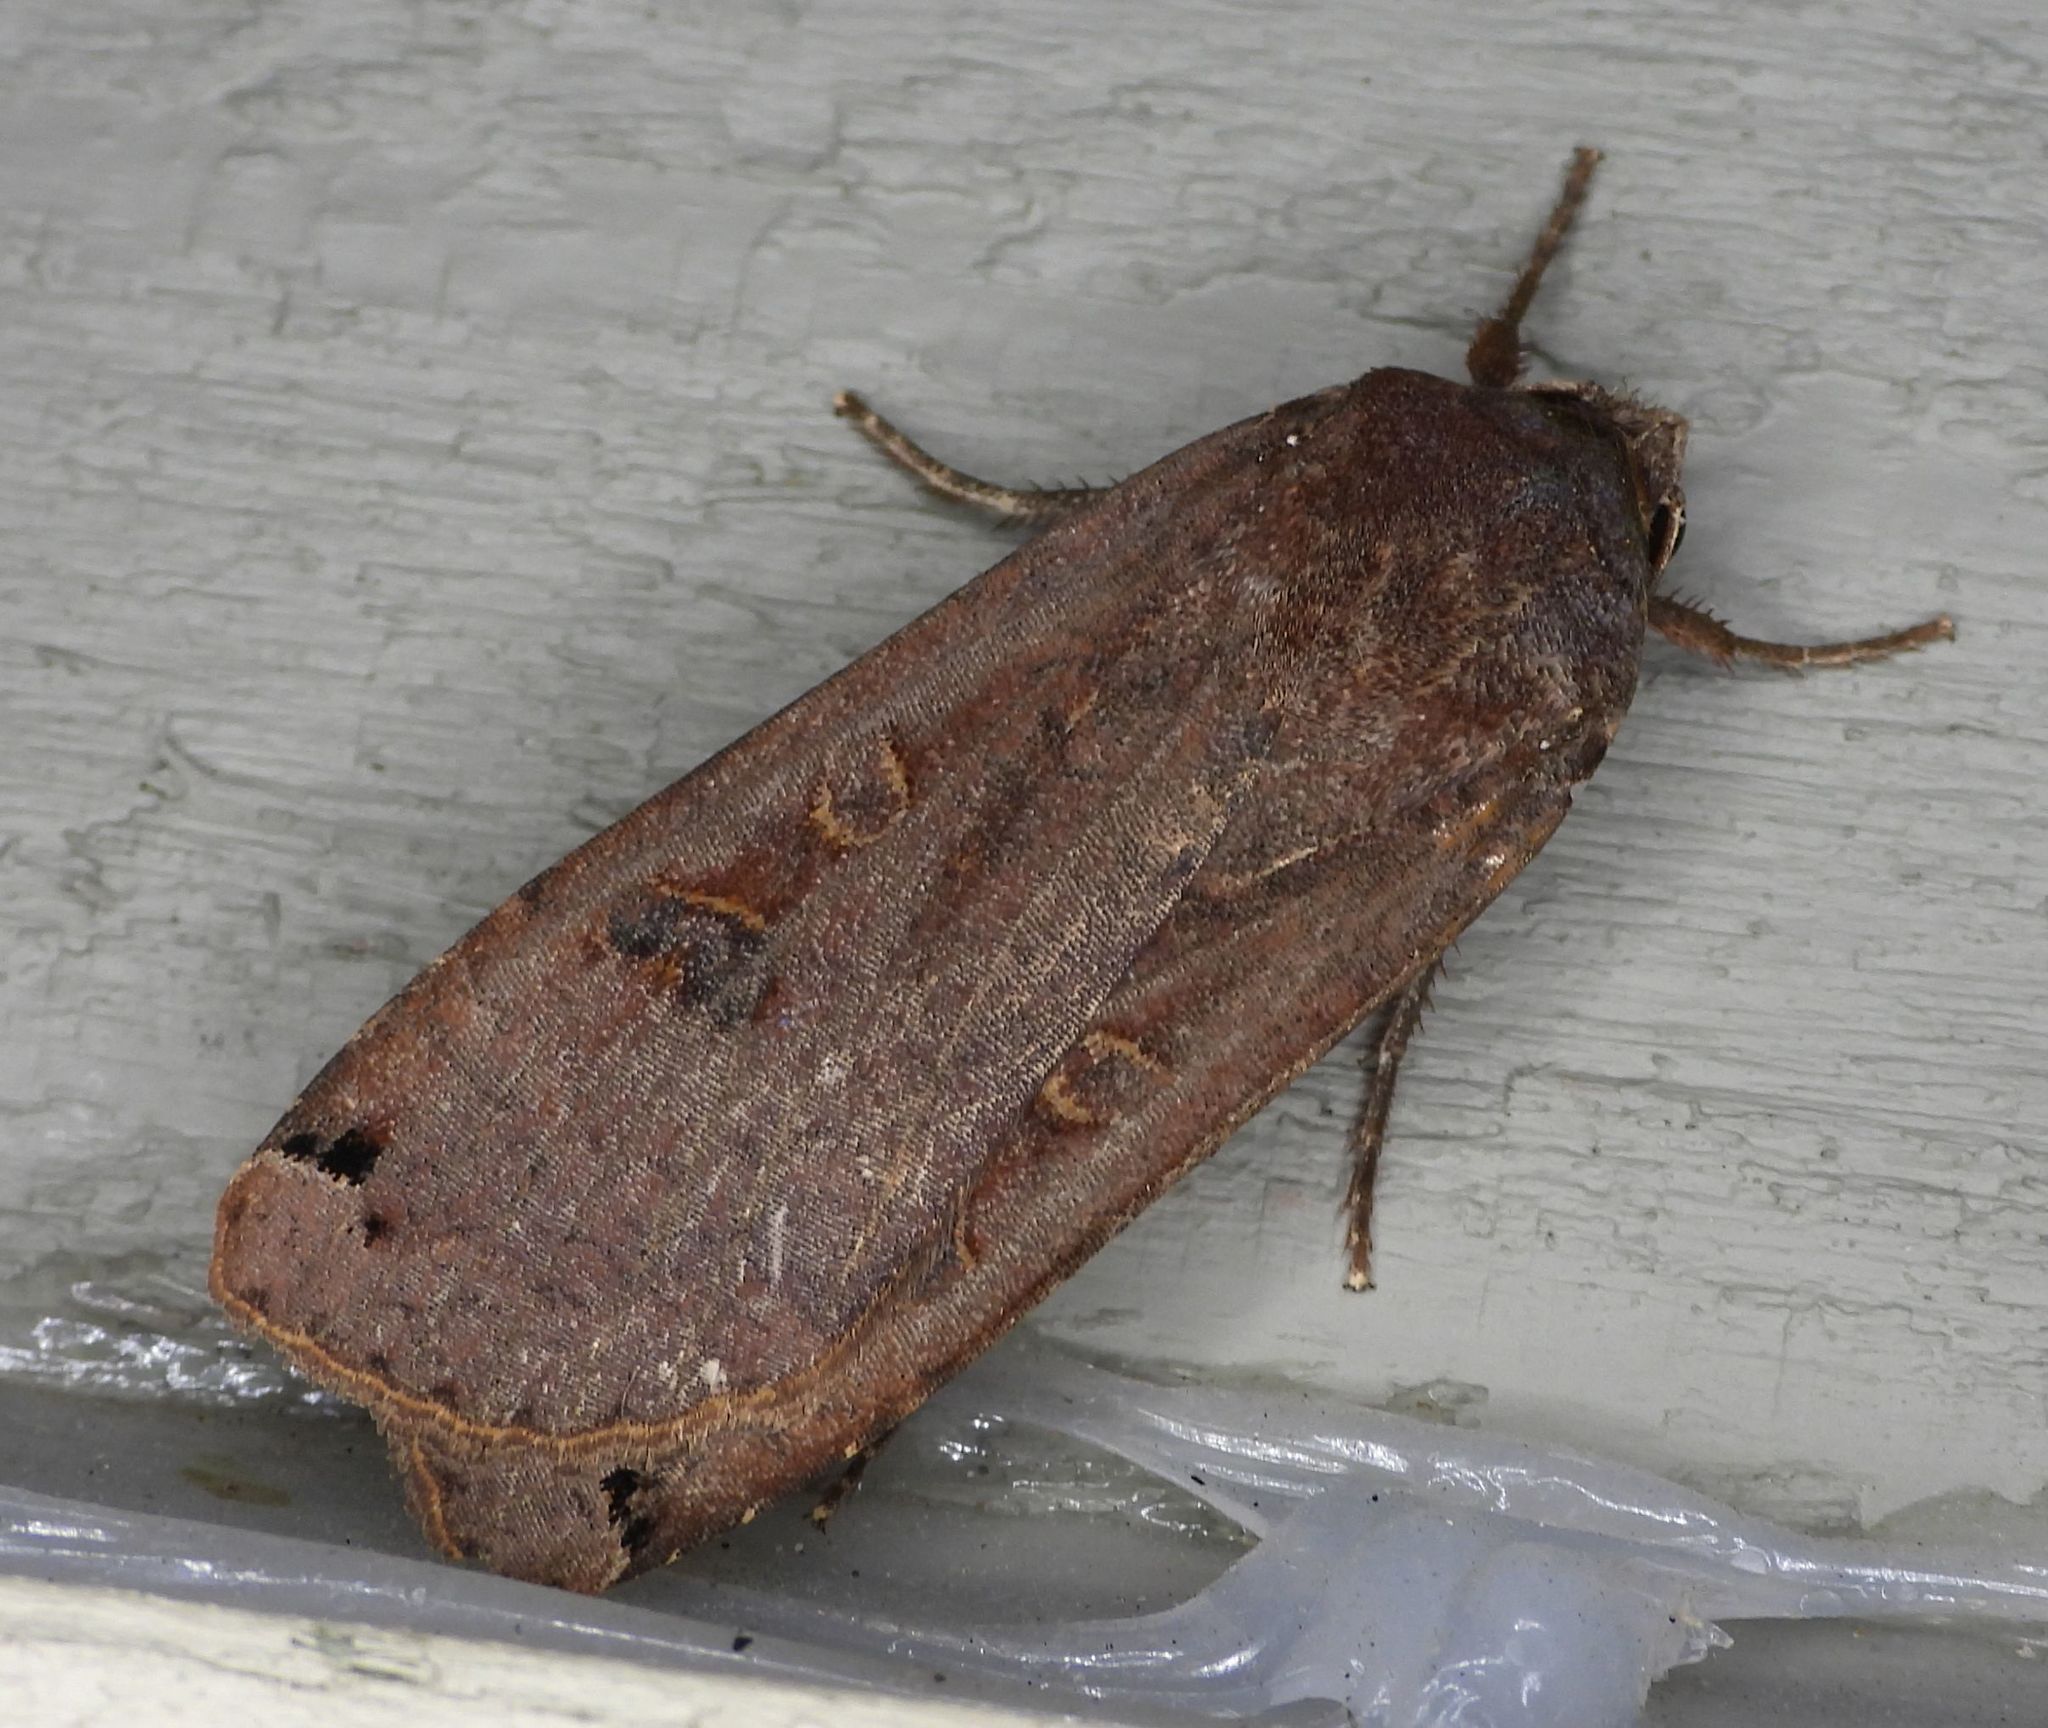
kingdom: Animalia
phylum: Arthropoda
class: Insecta
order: Lepidoptera
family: Noctuidae
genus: Noctua
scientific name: Noctua pronuba
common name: Large yellow underwing
